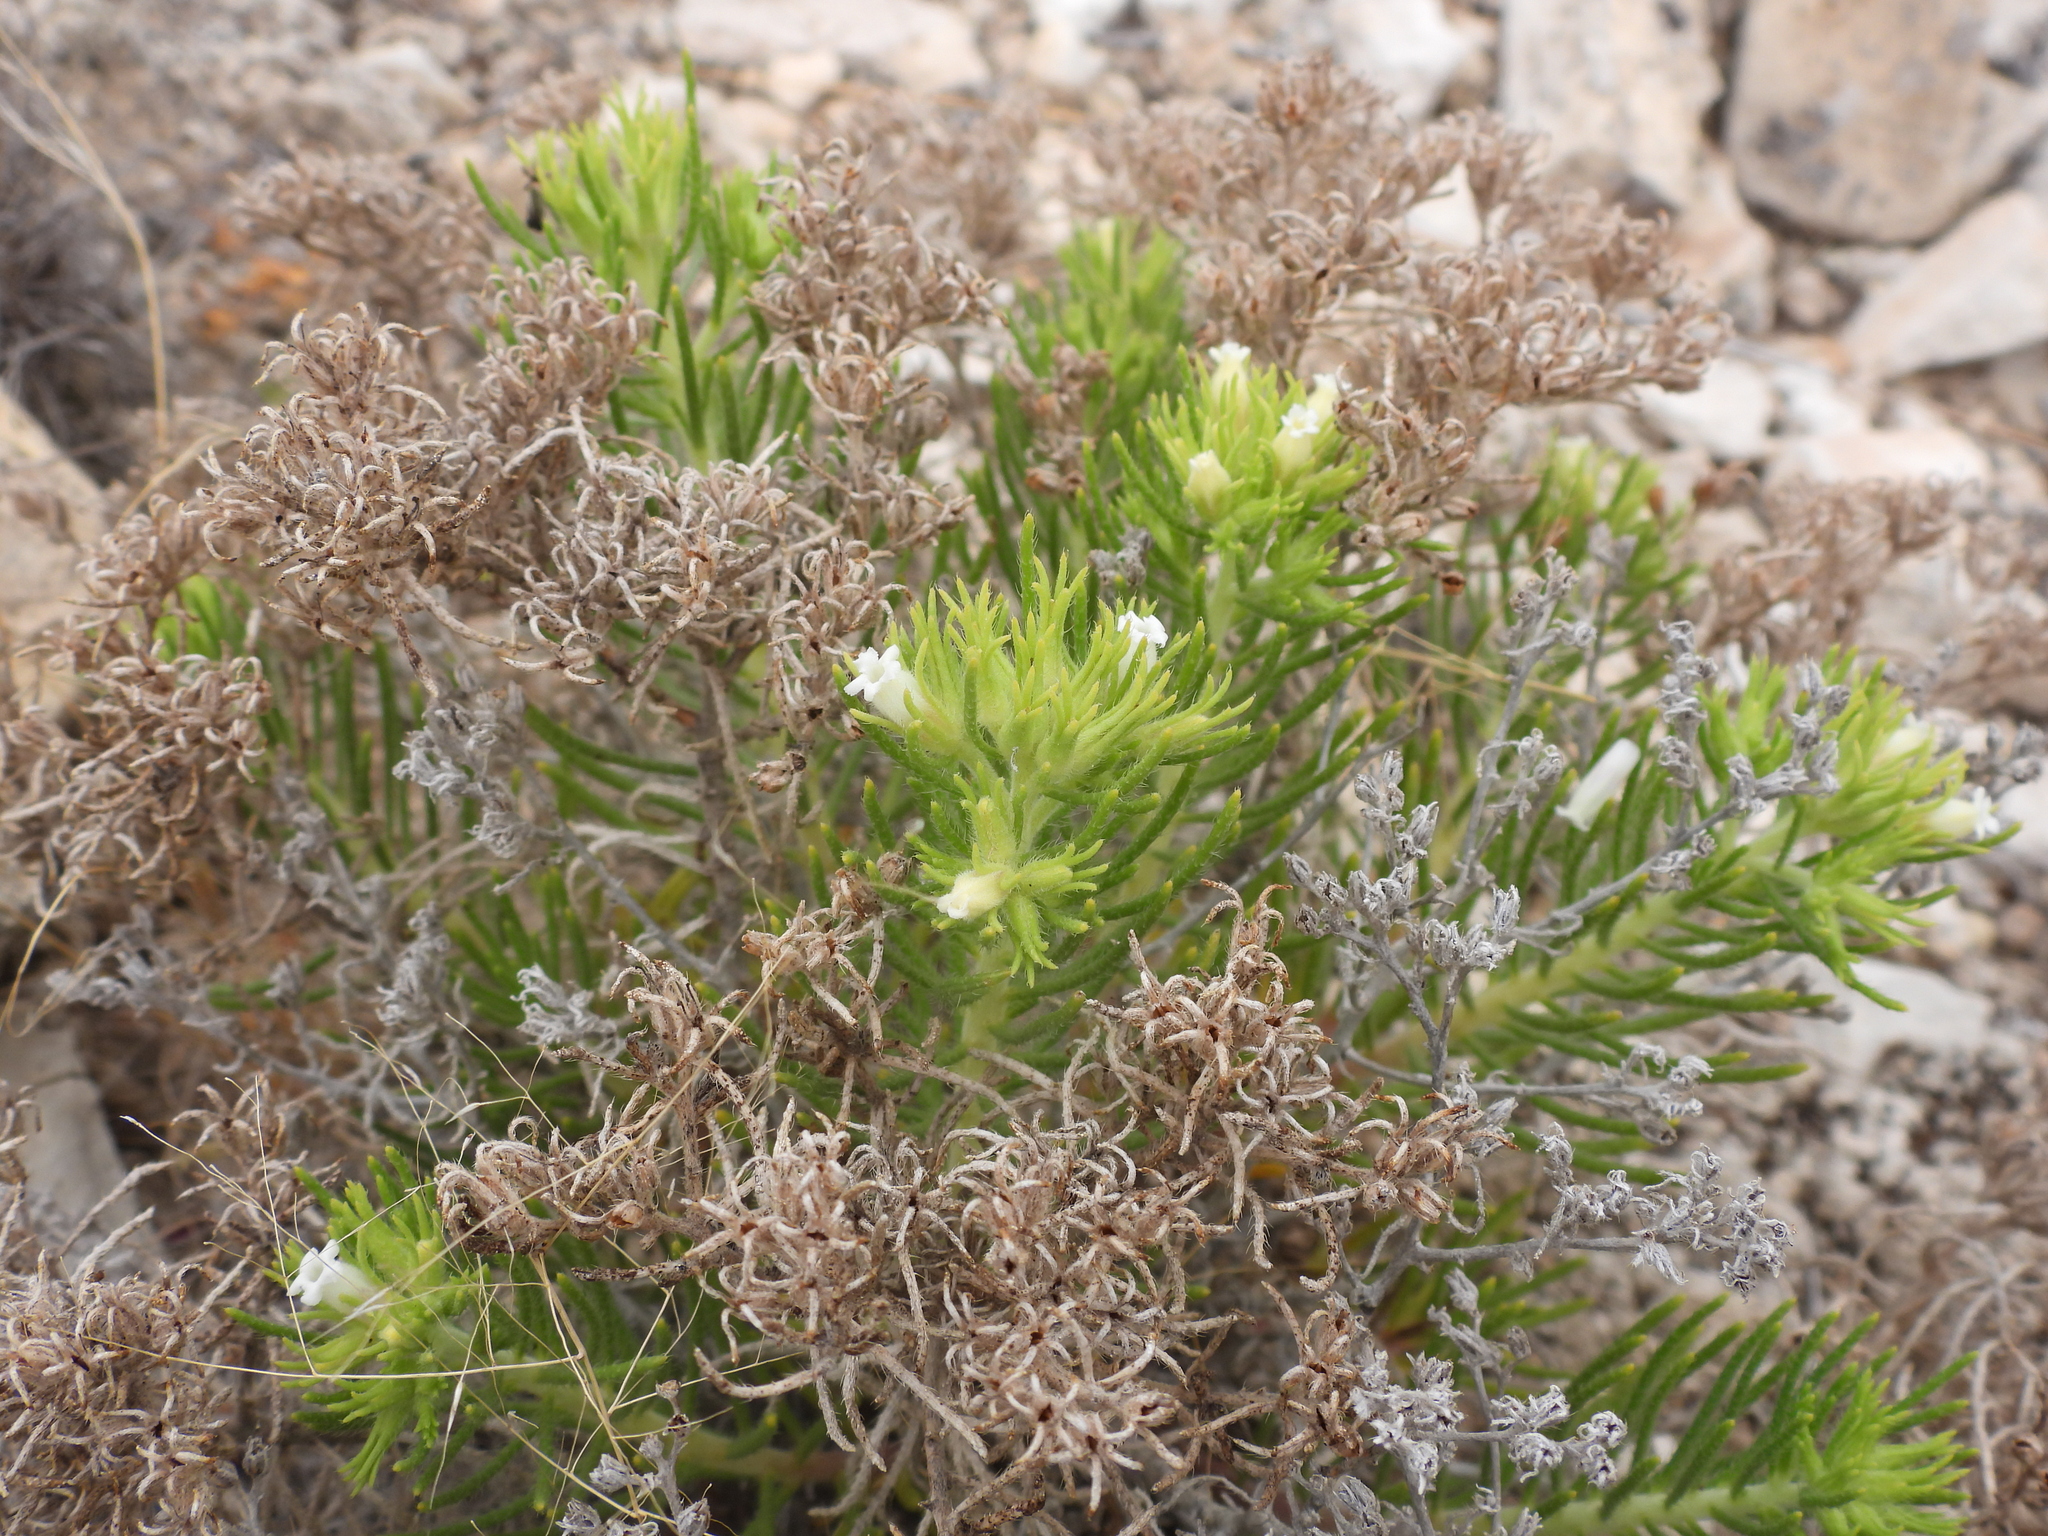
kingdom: Plantae
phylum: Tracheophyta
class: Magnoliopsida
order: Boraginales
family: Namaceae
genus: Andropus
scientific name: Andropus carnosus
